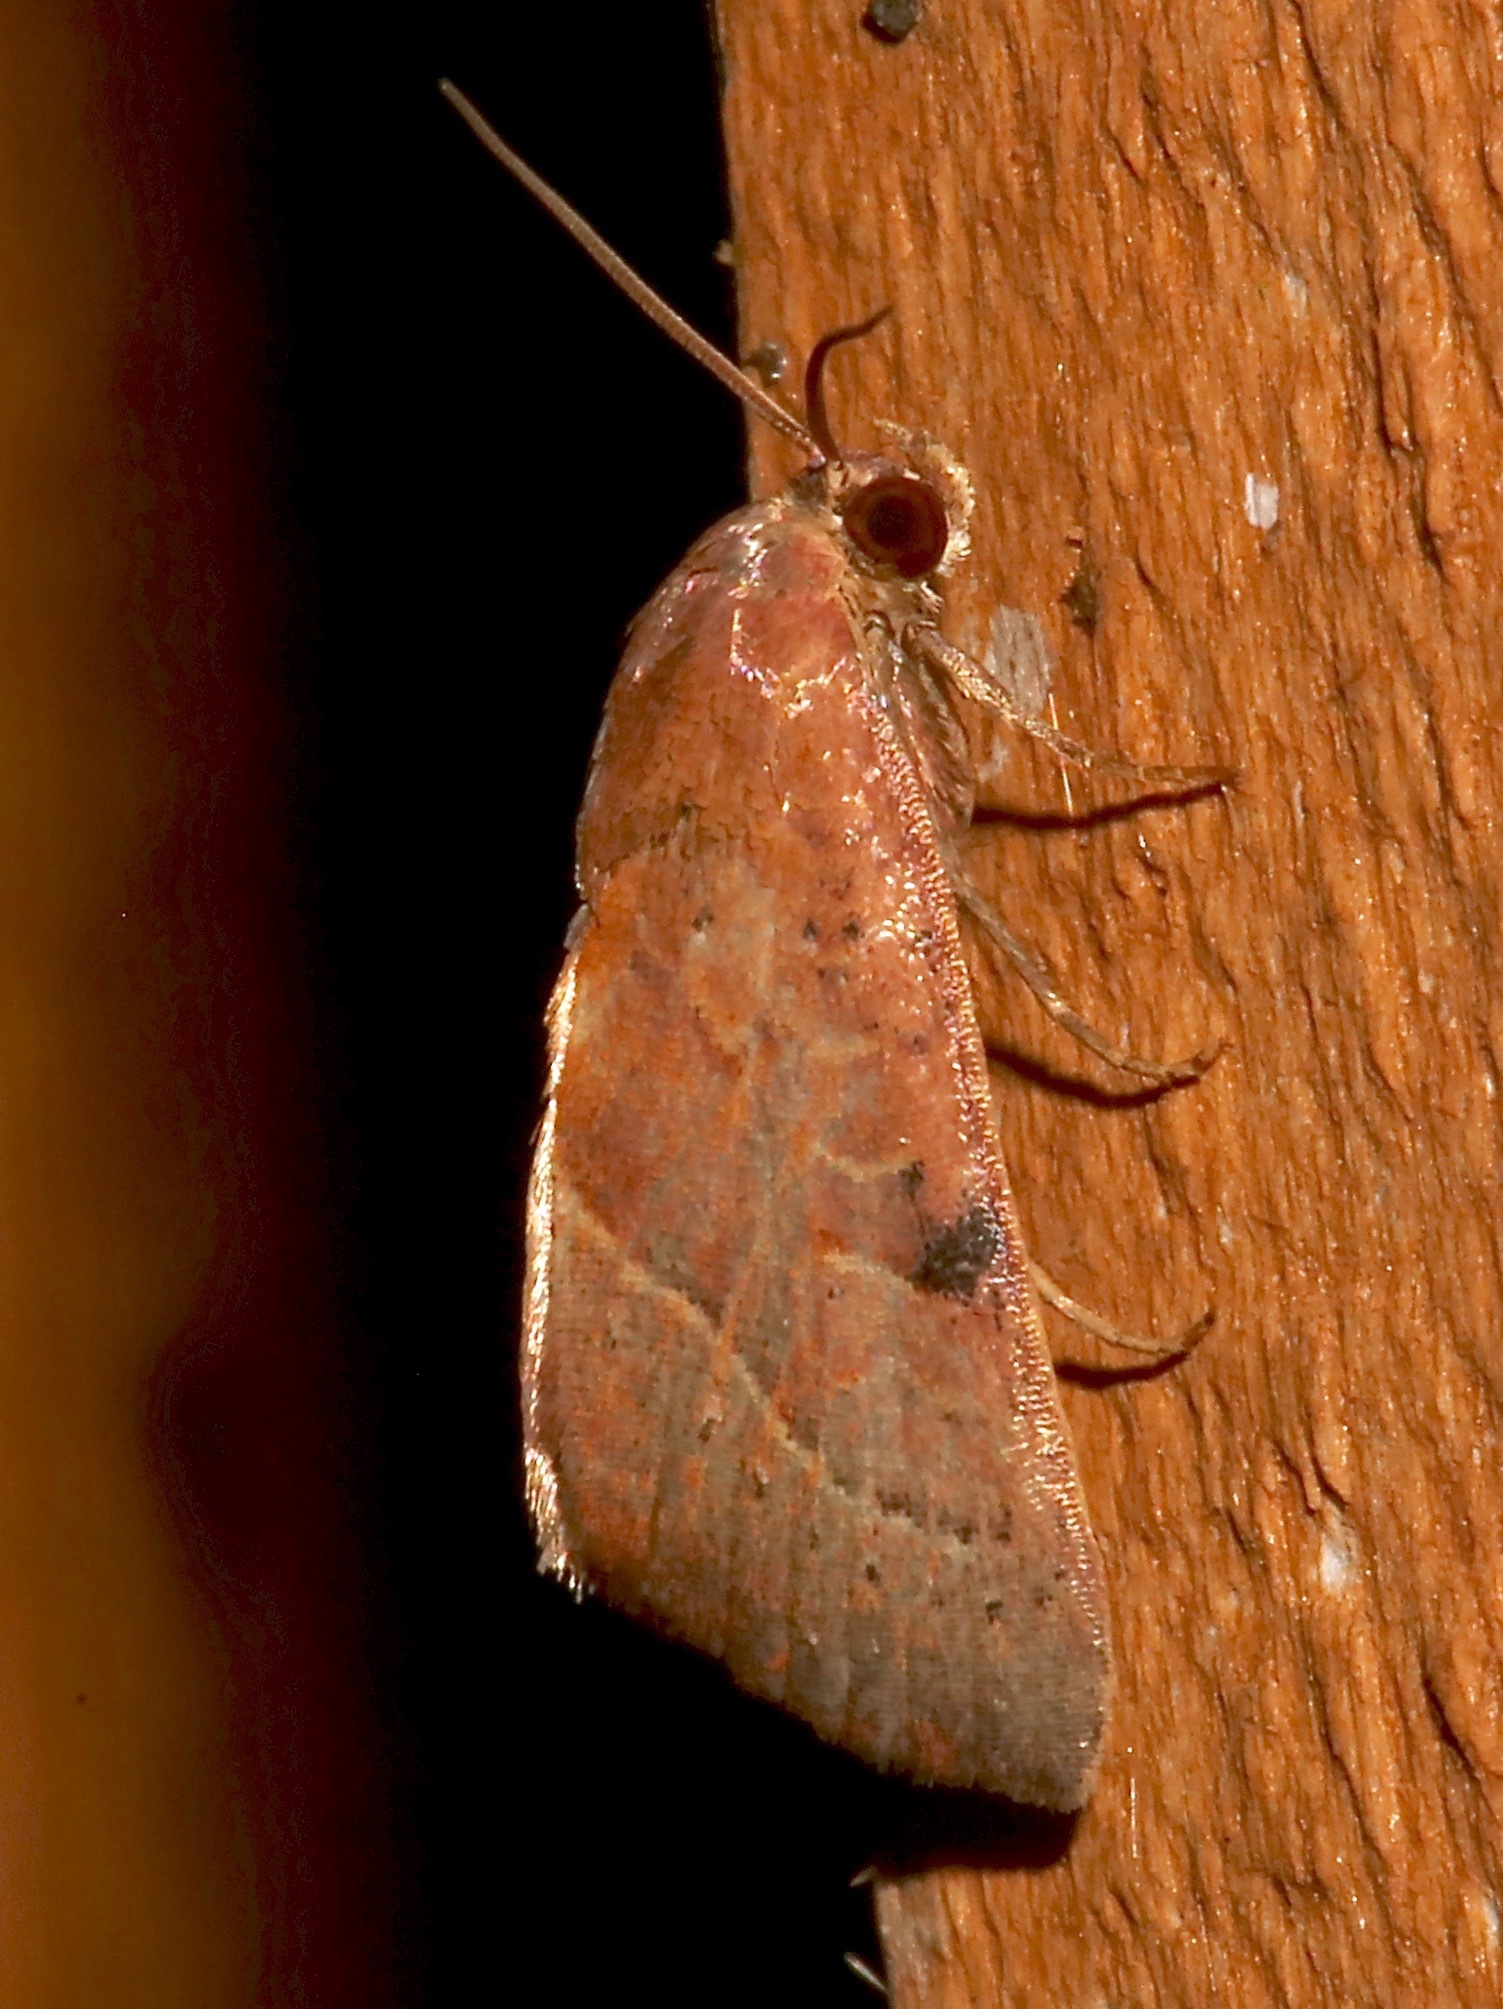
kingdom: Animalia
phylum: Arthropoda
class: Insecta
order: Lepidoptera
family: Noctuidae
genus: Galgula
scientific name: Galgula partita
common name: Wedgeling
